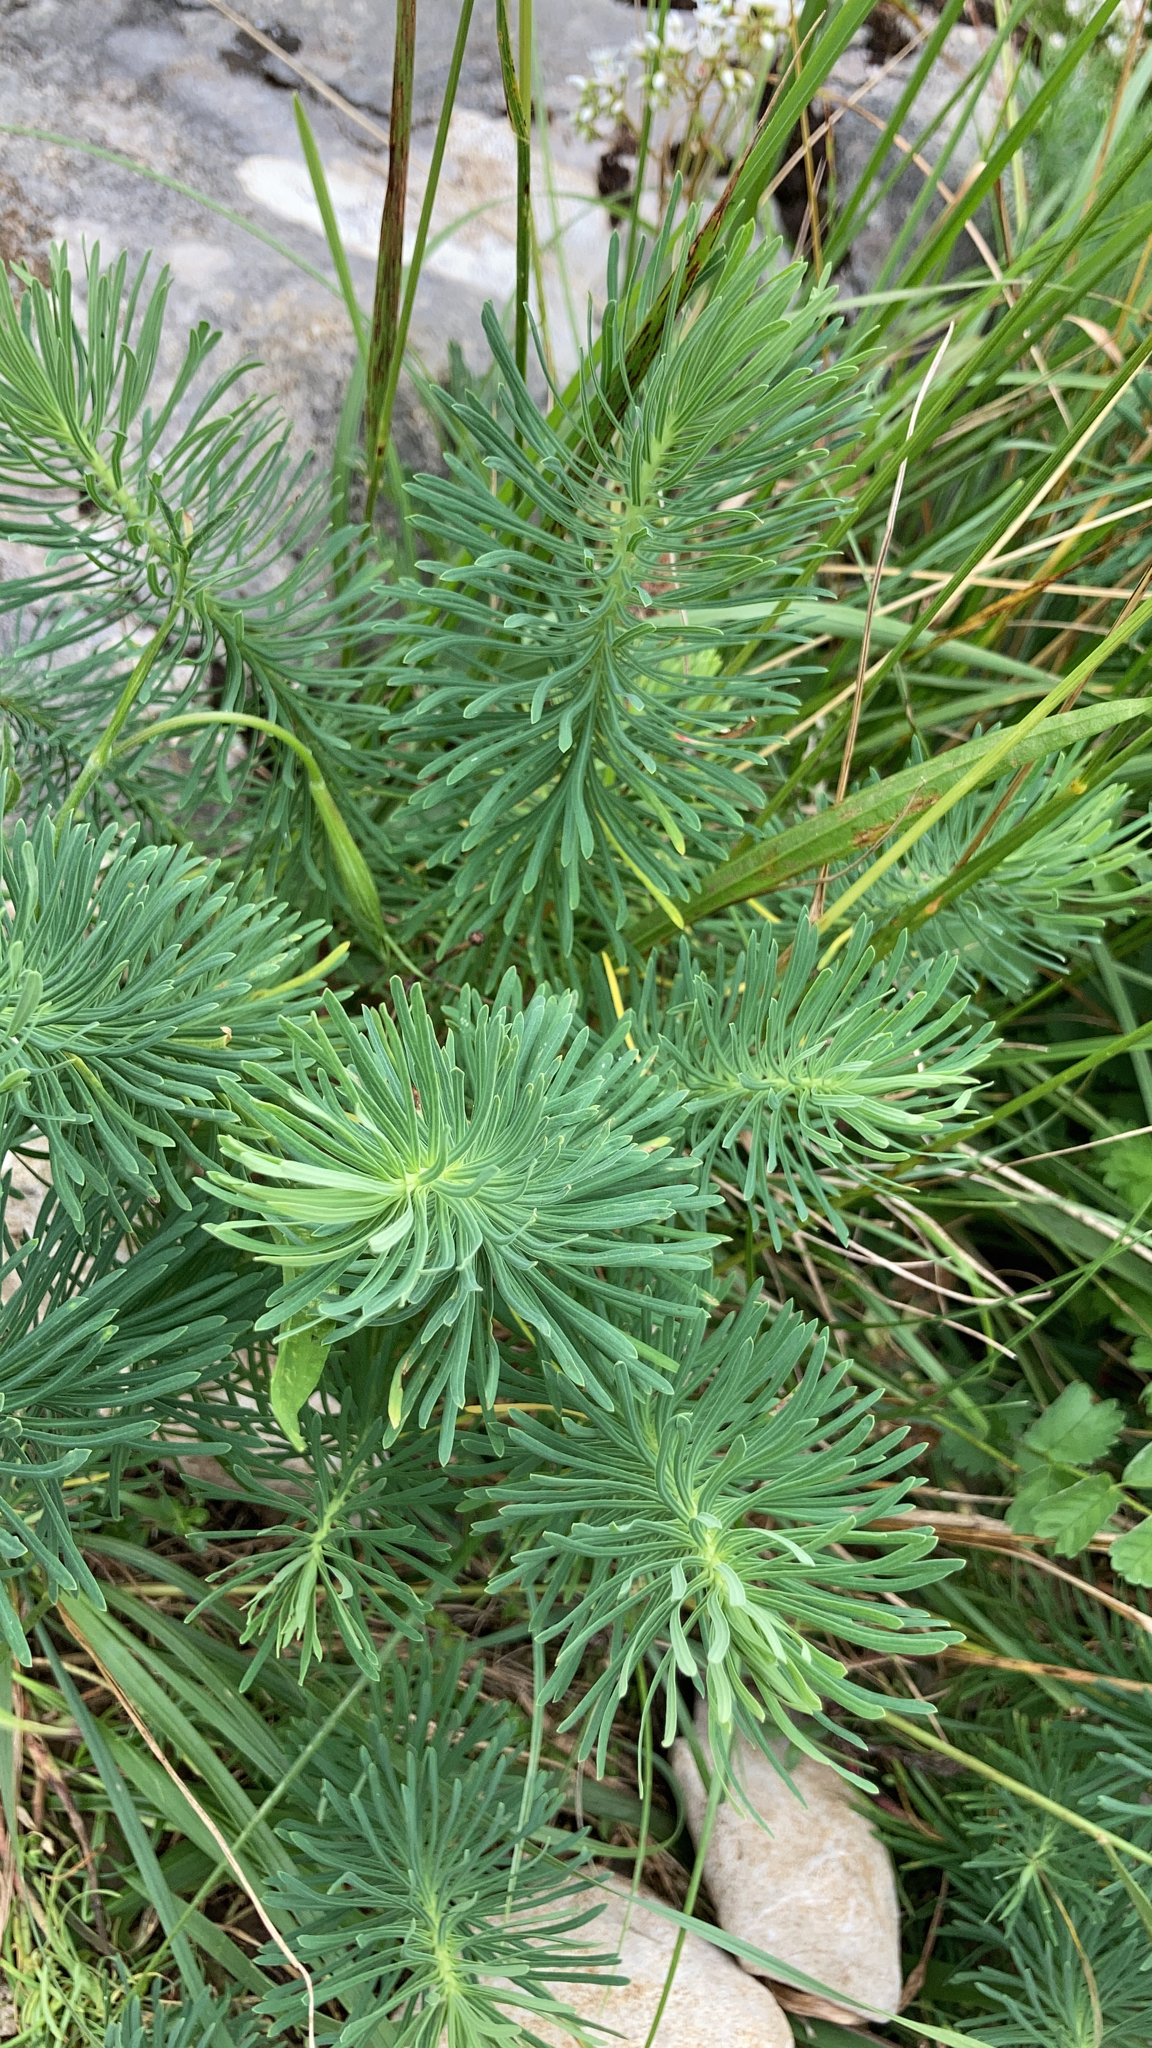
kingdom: Plantae
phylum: Tracheophyta
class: Magnoliopsida
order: Malpighiales
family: Euphorbiaceae
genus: Euphorbia
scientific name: Euphorbia cyparissias
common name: Cypress spurge
